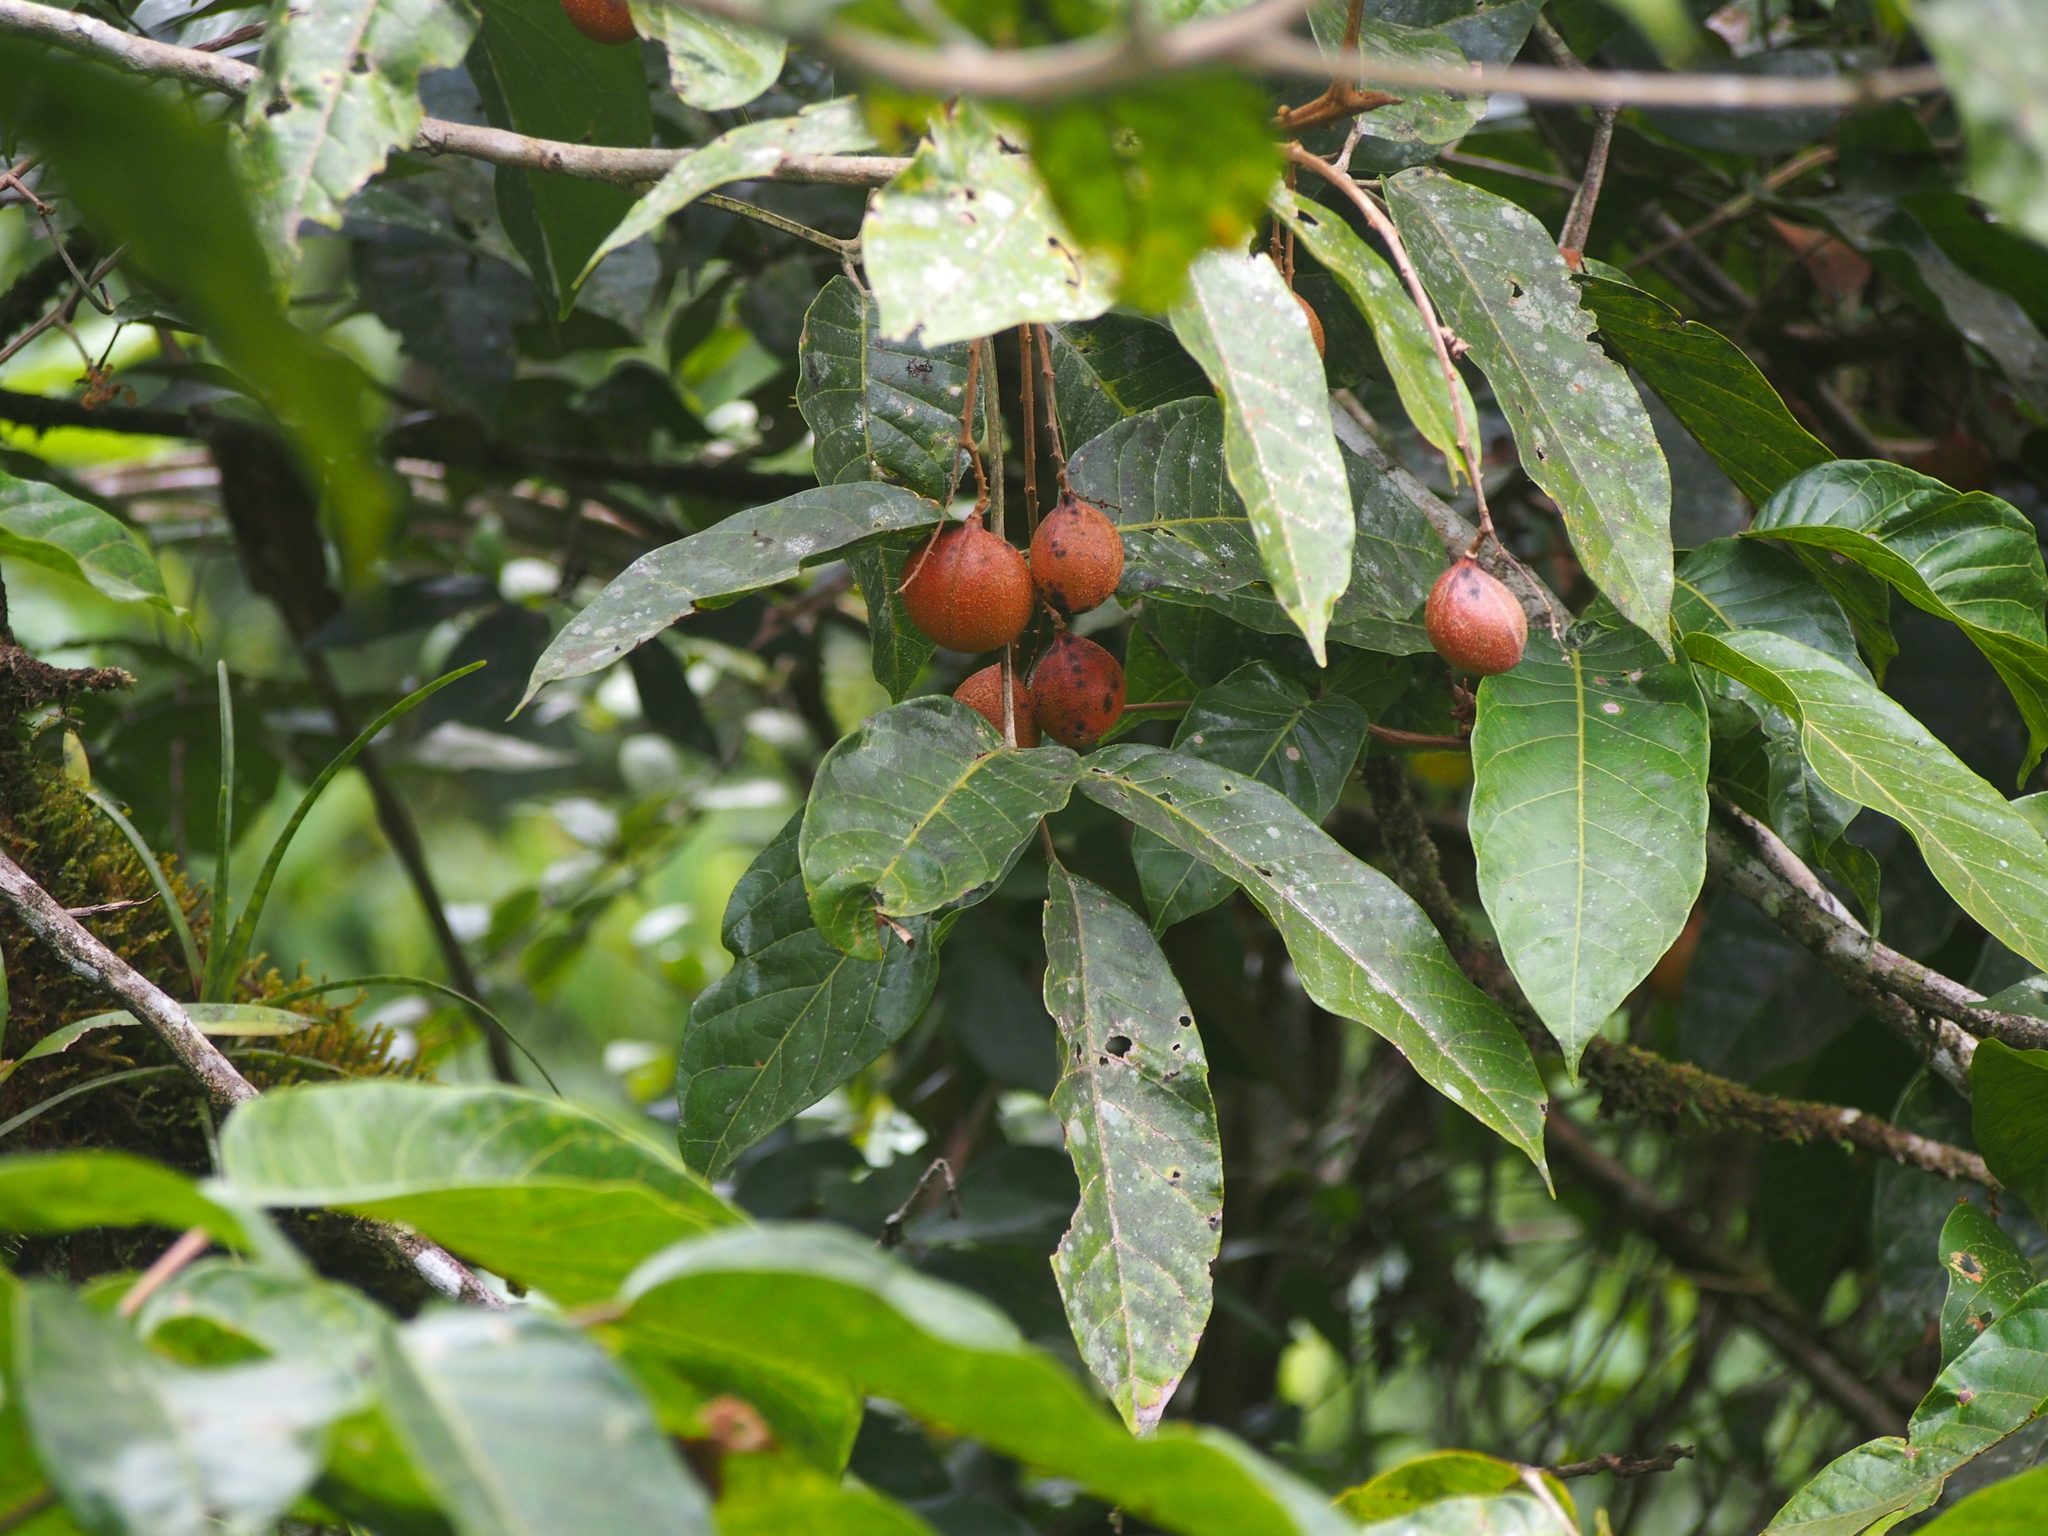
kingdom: Plantae
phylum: Tracheophyta
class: Magnoliopsida
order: Sapindales
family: Burseraceae
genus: Protium
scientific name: Protium pittieri
